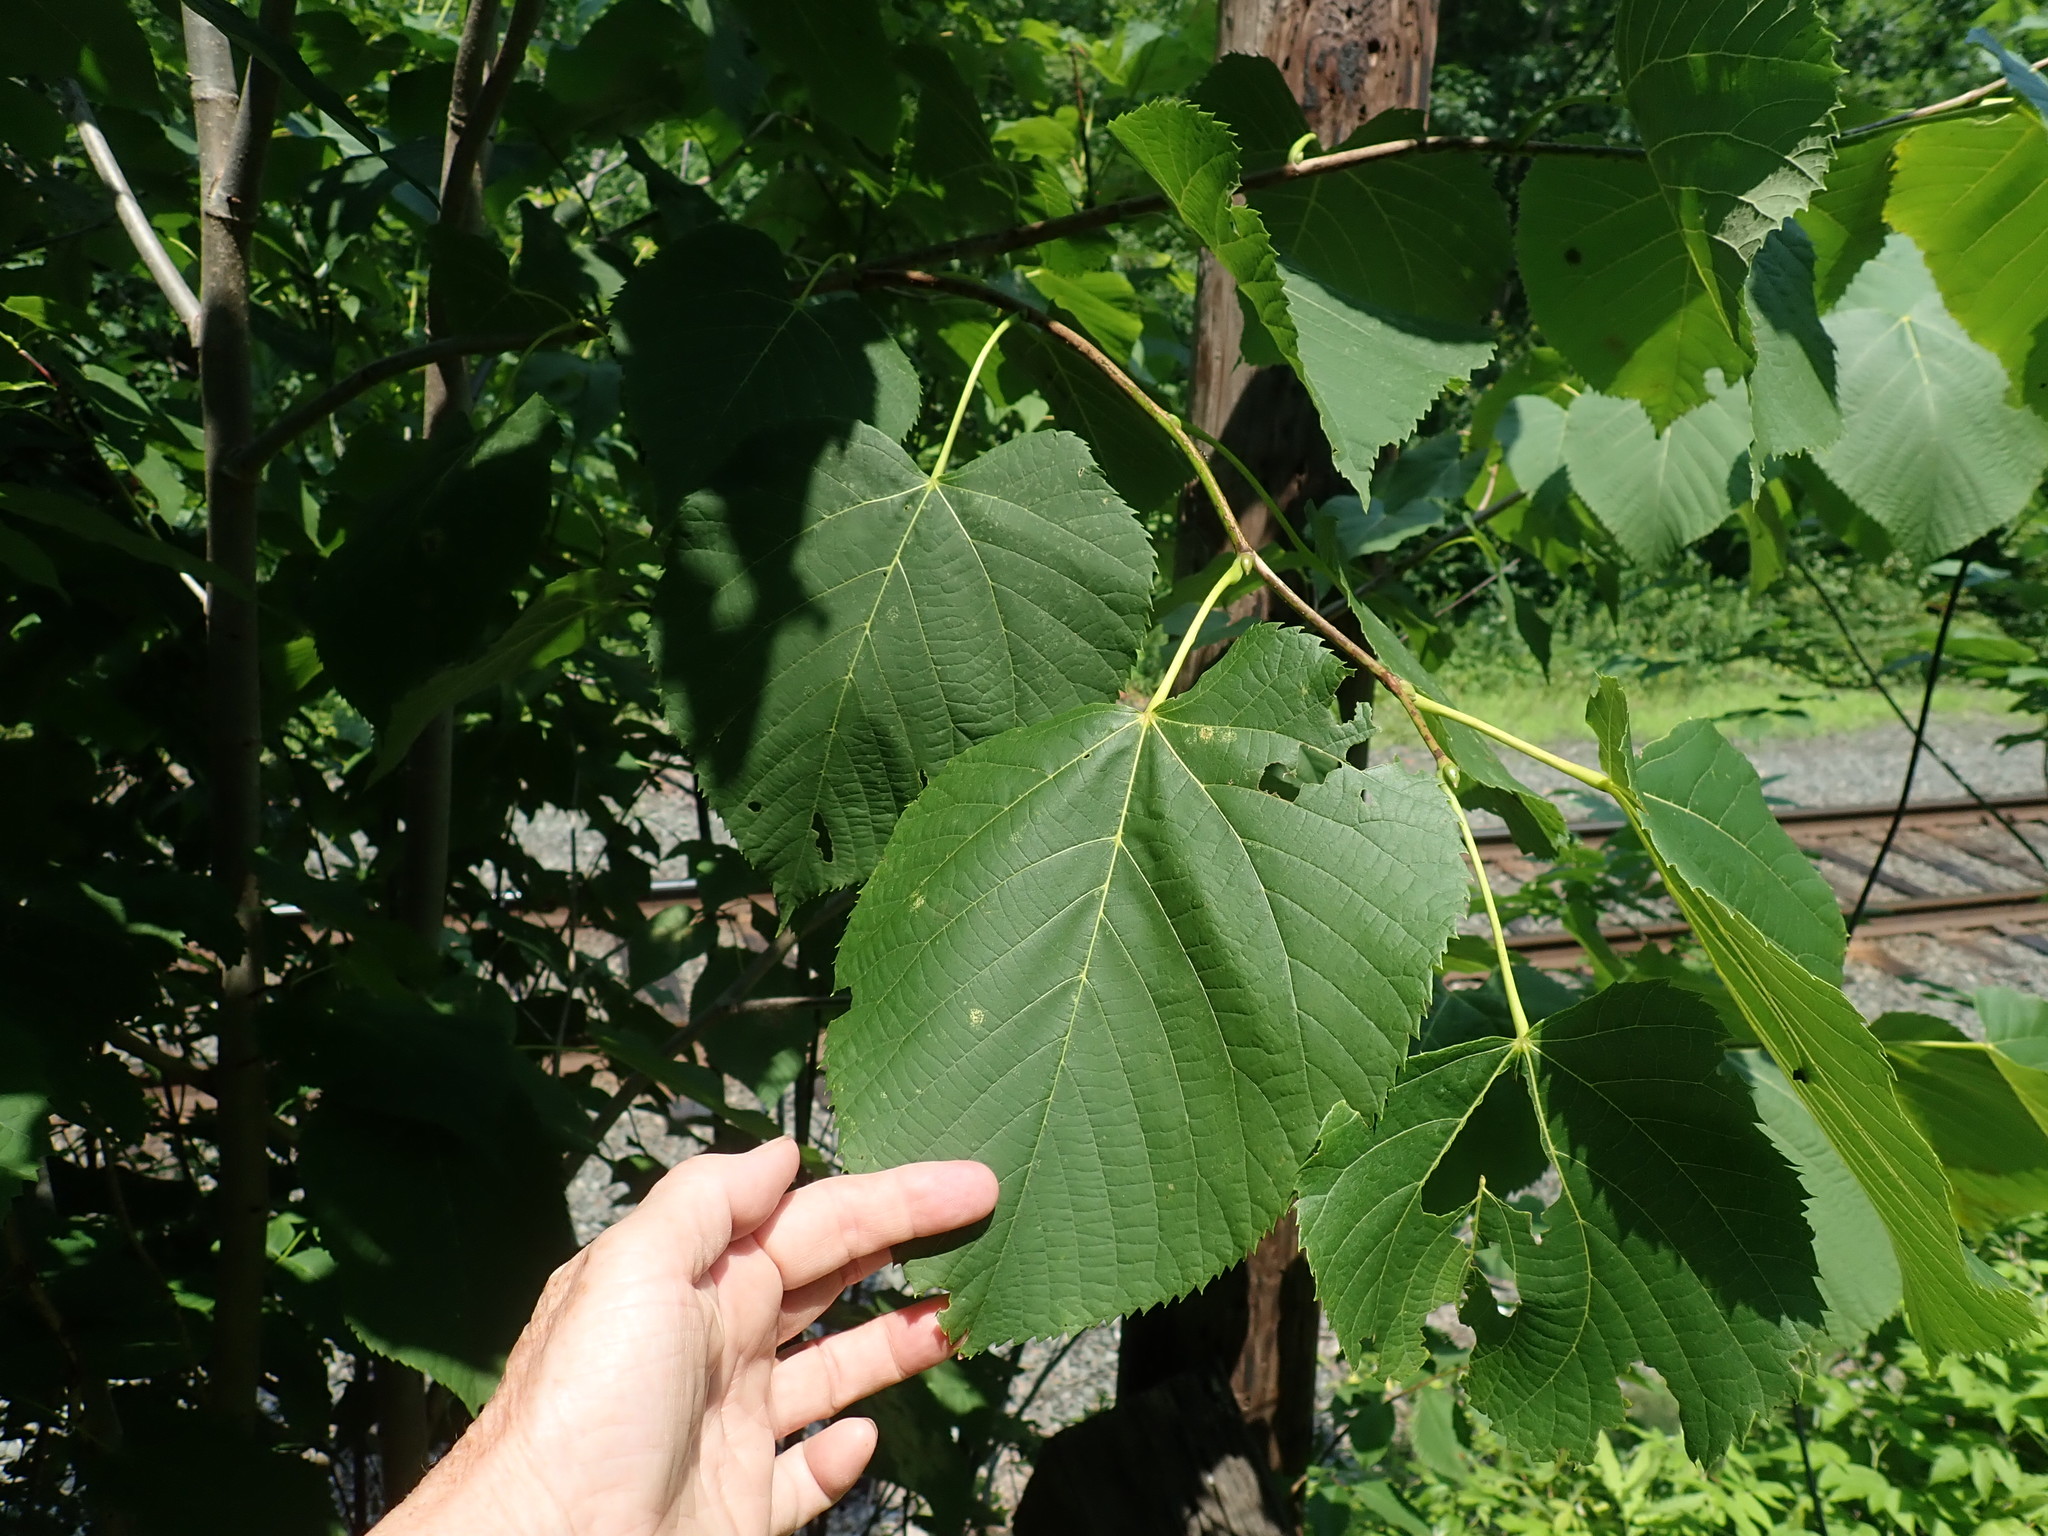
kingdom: Plantae
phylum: Tracheophyta
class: Magnoliopsida
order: Malvales
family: Malvaceae
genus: Tilia
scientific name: Tilia americana
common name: Basswood
